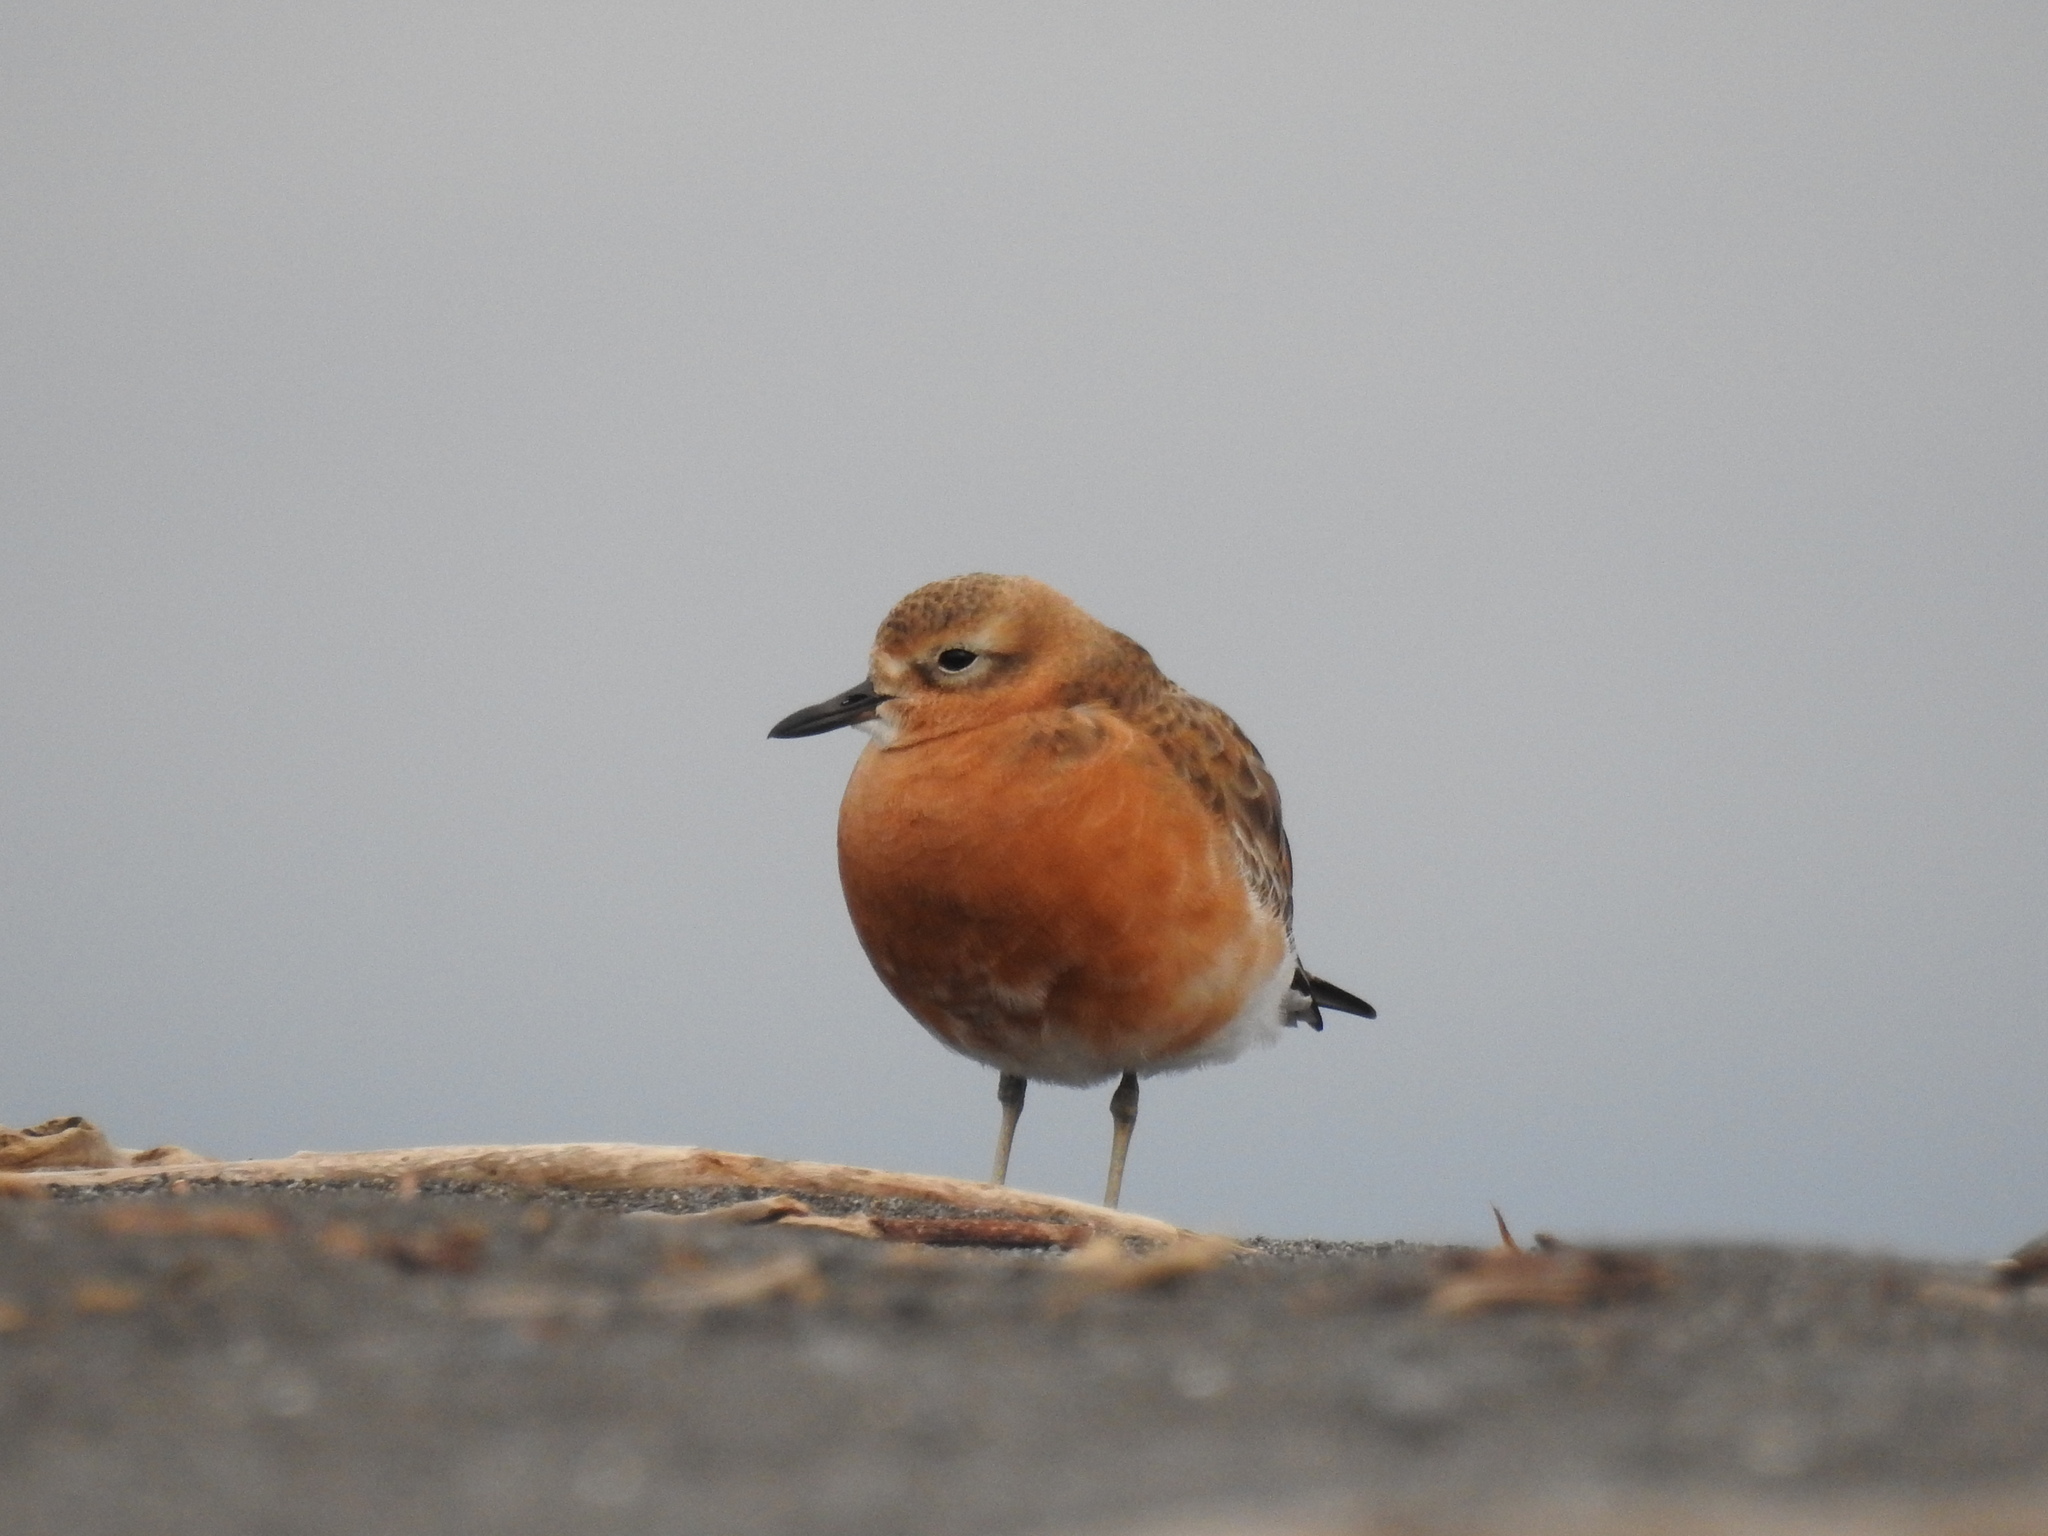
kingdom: Animalia
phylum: Chordata
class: Aves
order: Charadriiformes
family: Charadriidae
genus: Anarhynchus
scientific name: Anarhynchus
